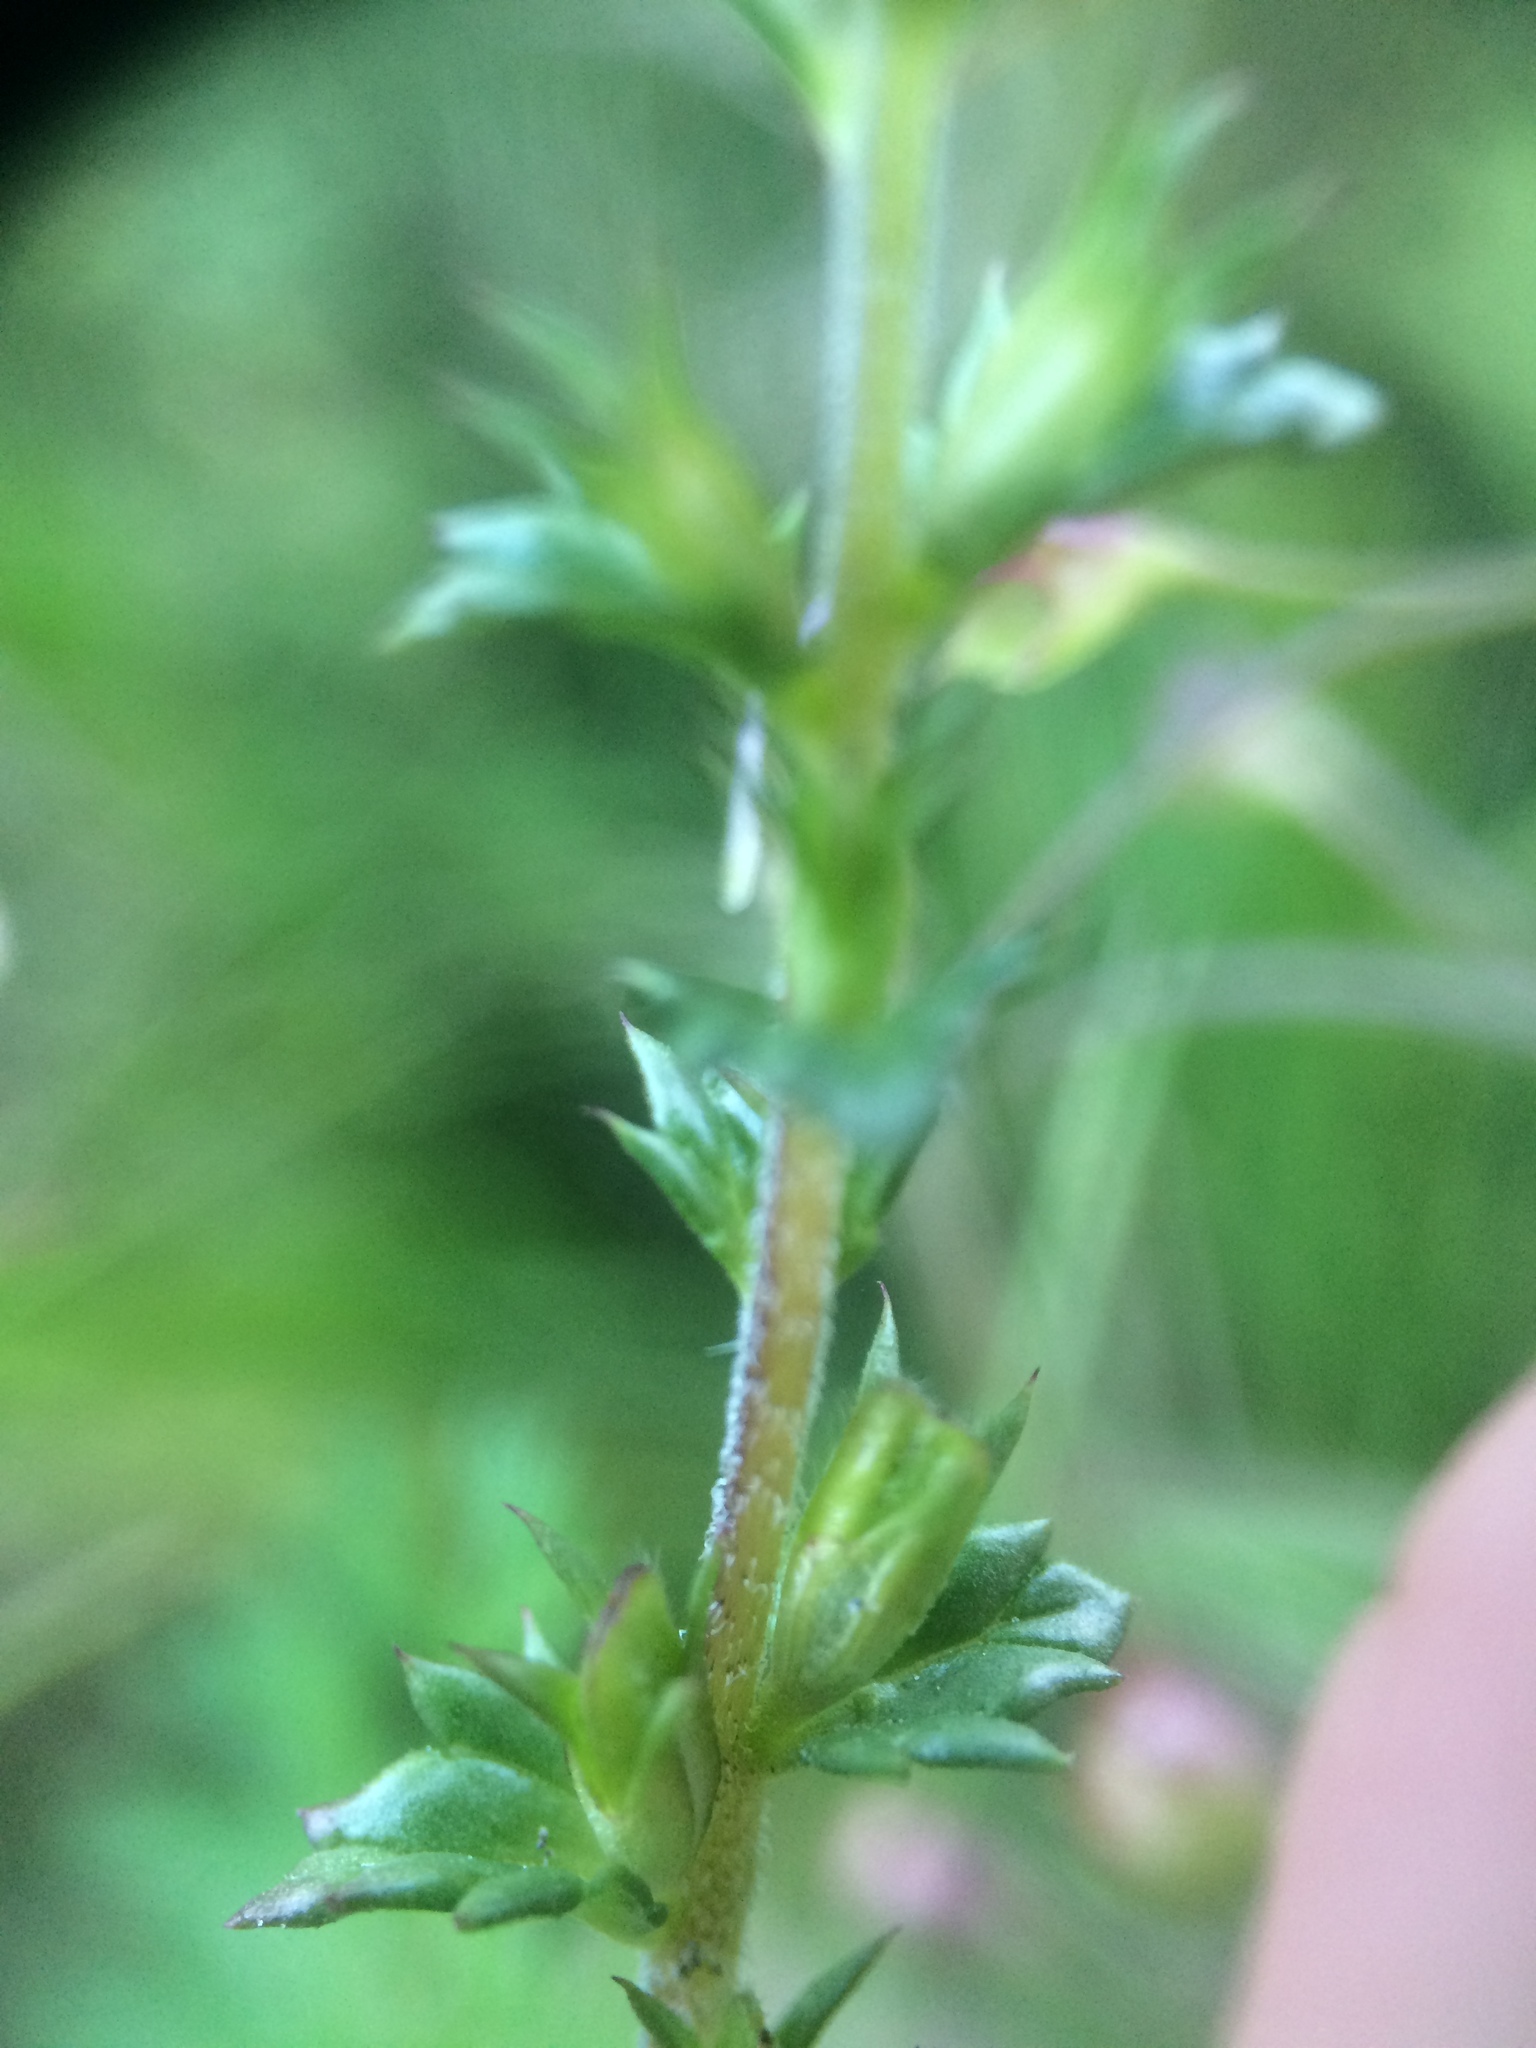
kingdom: Plantae
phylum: Tracheophyta
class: Magnoliopsida
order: Lamiales
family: Orobanchaceae
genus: Euphrasia
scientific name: Euphrasia nemorosa
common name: Common eyebright
